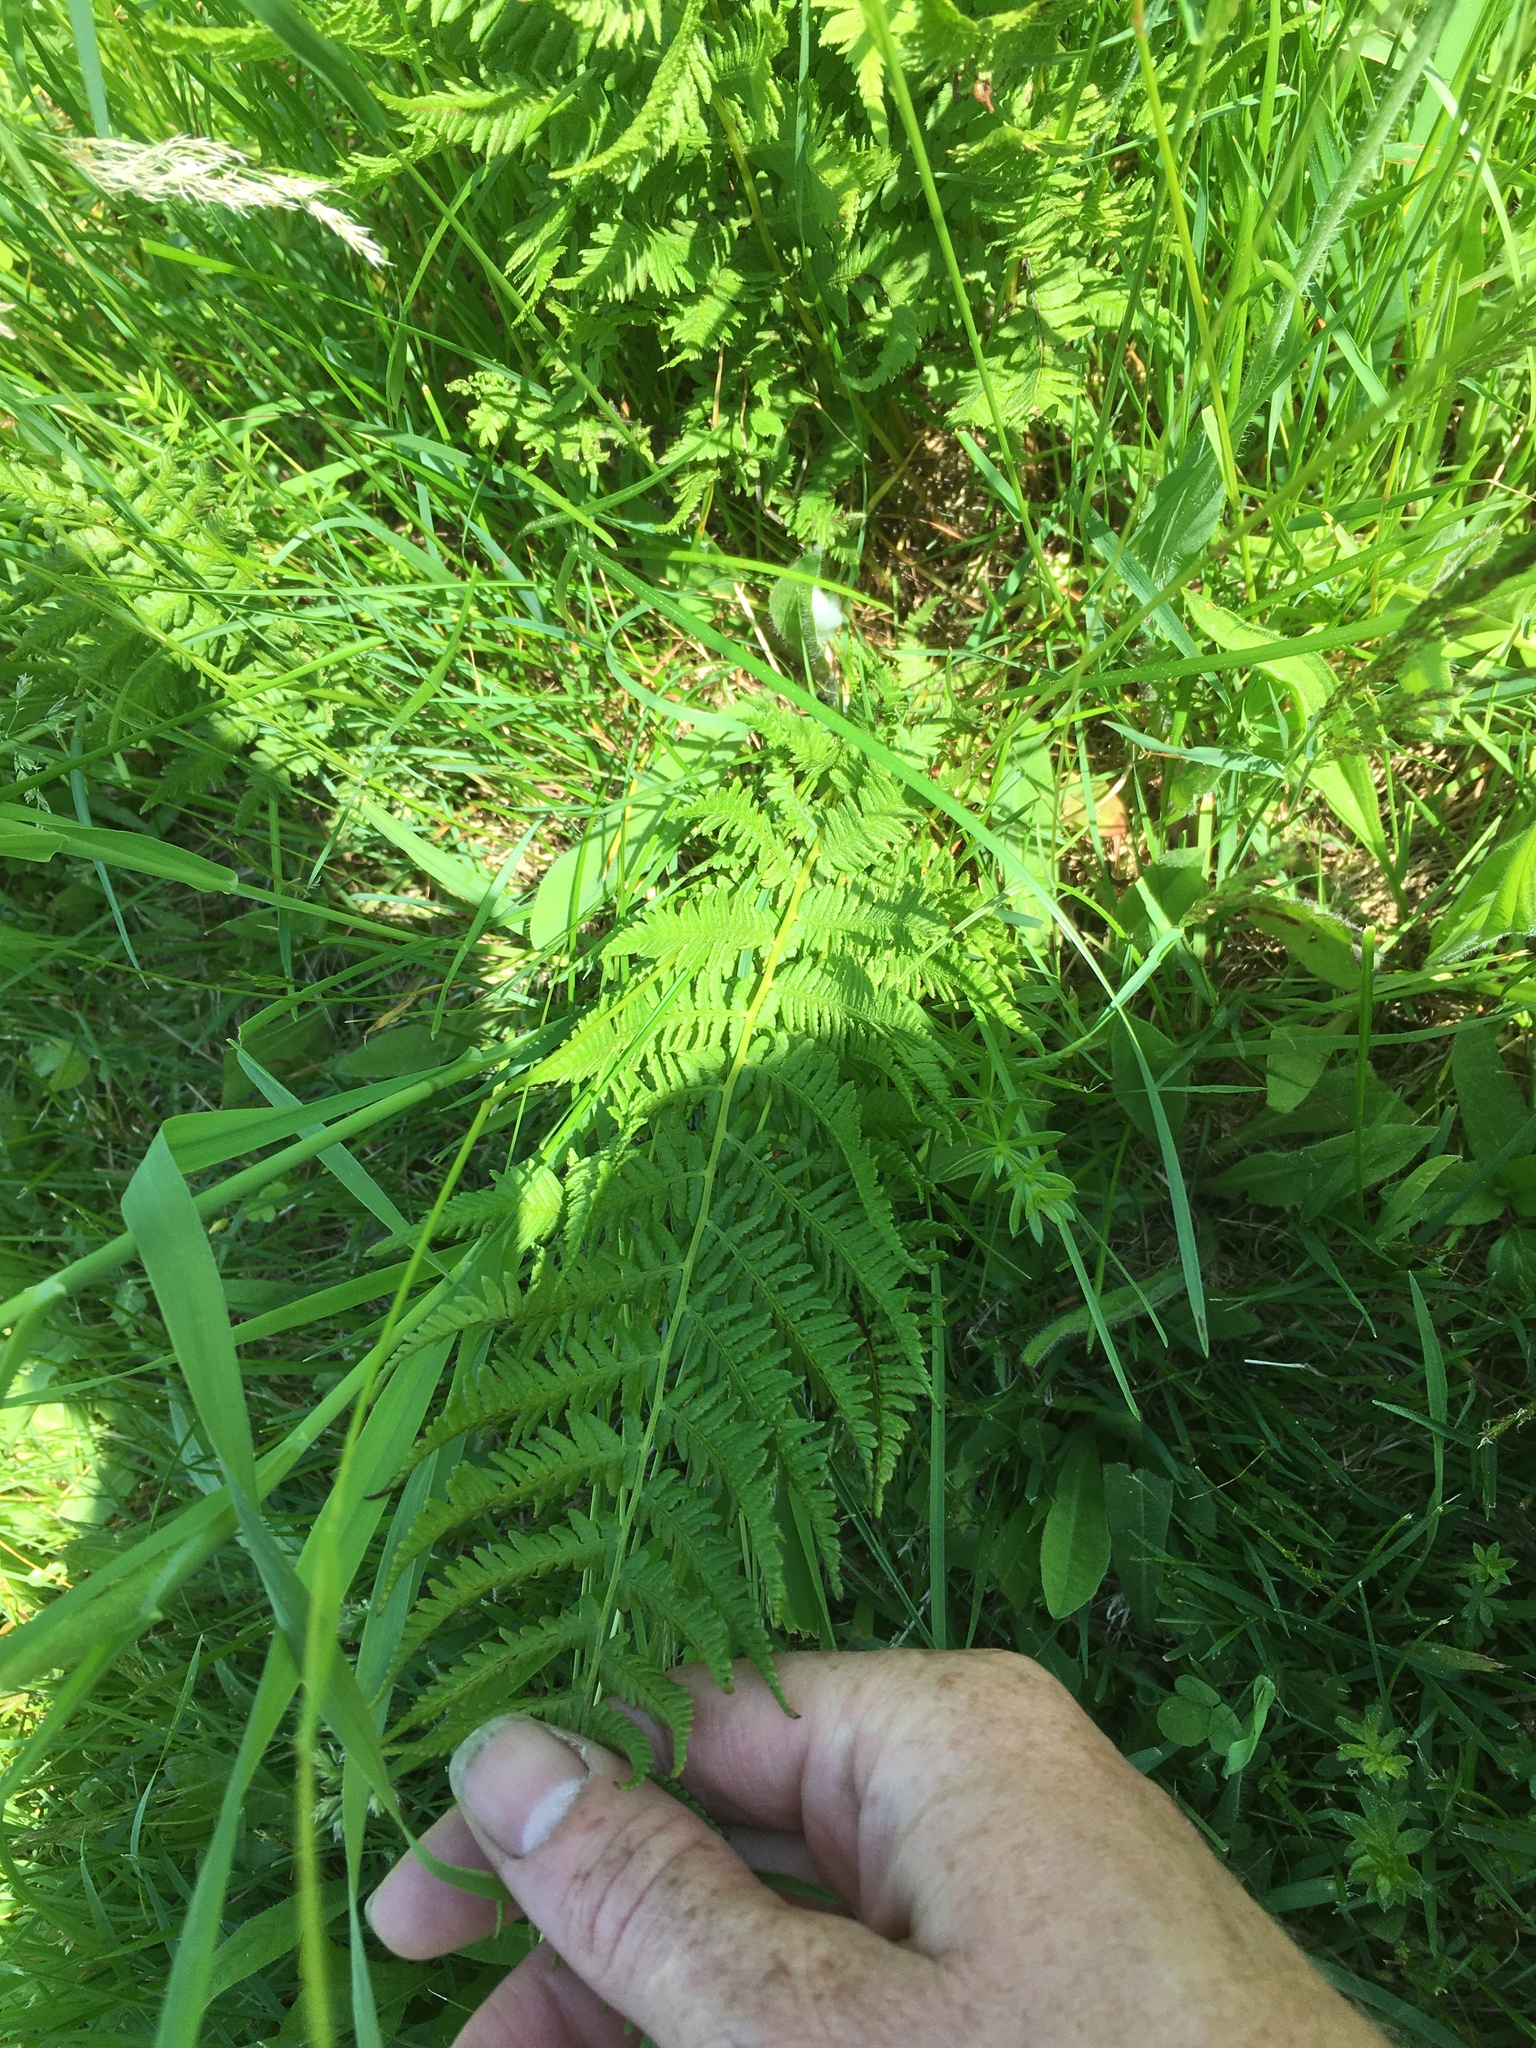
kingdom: Plantae
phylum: Tracheophyta
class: Polypodiopsida
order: Polypodiales
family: Thelypteridaceae
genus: Amauropelta
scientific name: Amauropelta noveboracensis
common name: New york fern
